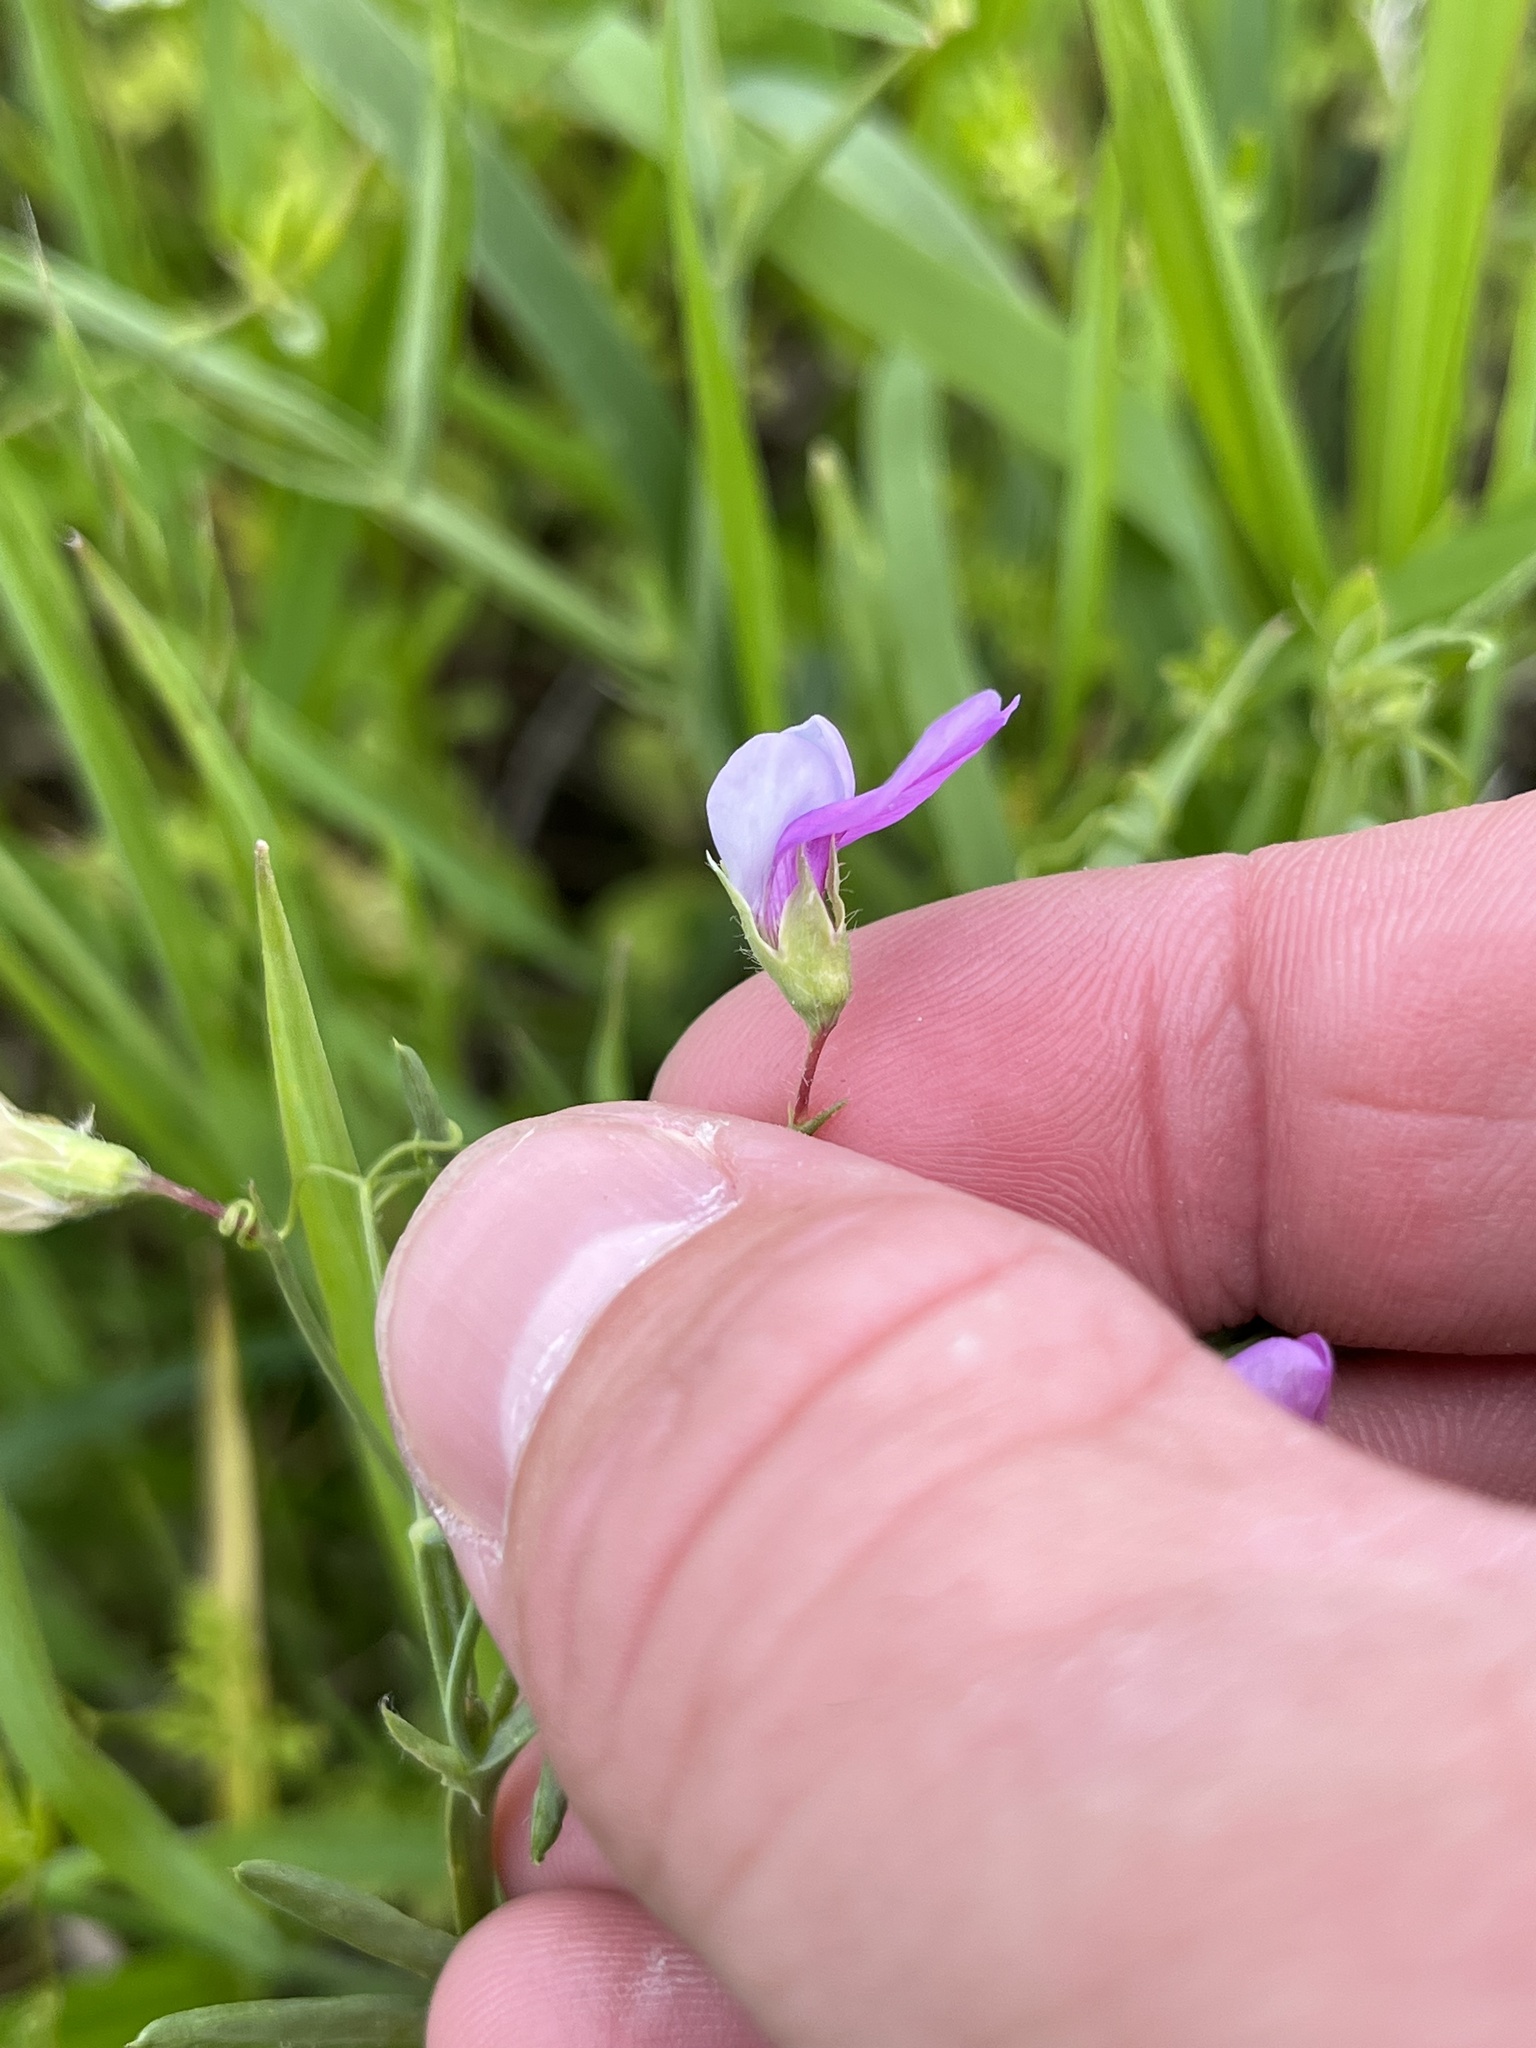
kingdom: Plantae
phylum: Tracheophyta
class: Magnoliopsida
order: Fabales
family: Fabaceae
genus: Lathyrus
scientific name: Lathyrus hirsutus
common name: Hairy vetchling
